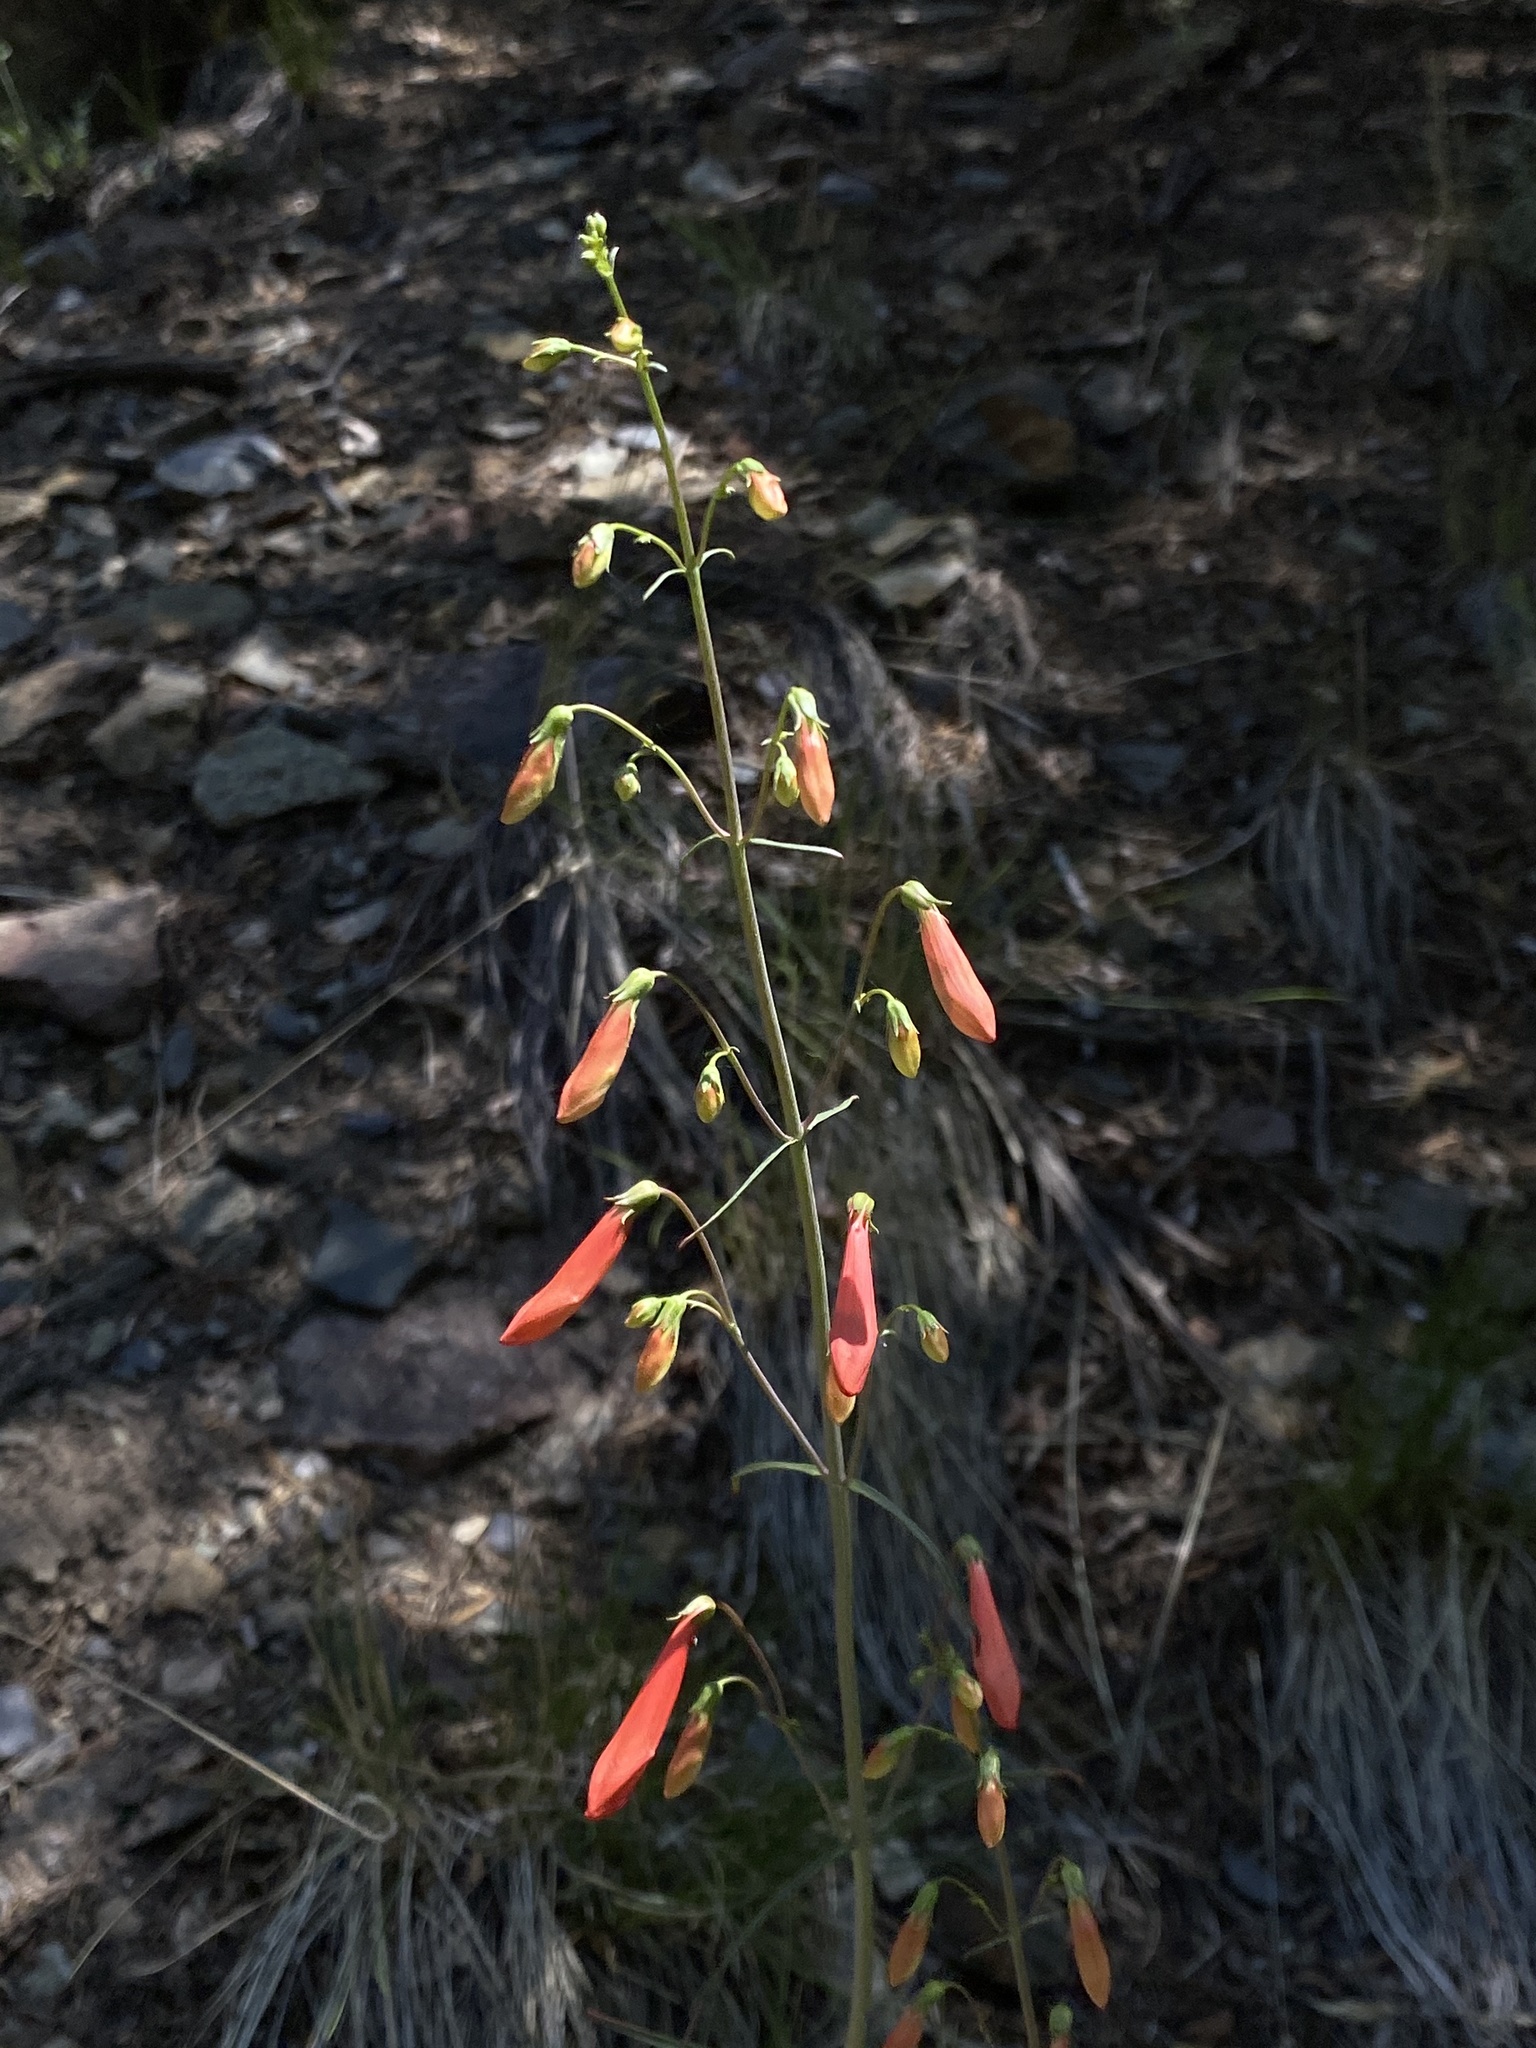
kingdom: Plantae
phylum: Tracheophyta
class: Magnoliopsida
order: Lamiales
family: Plantaginaceae
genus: Penstemon
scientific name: Penstemon barbatus
